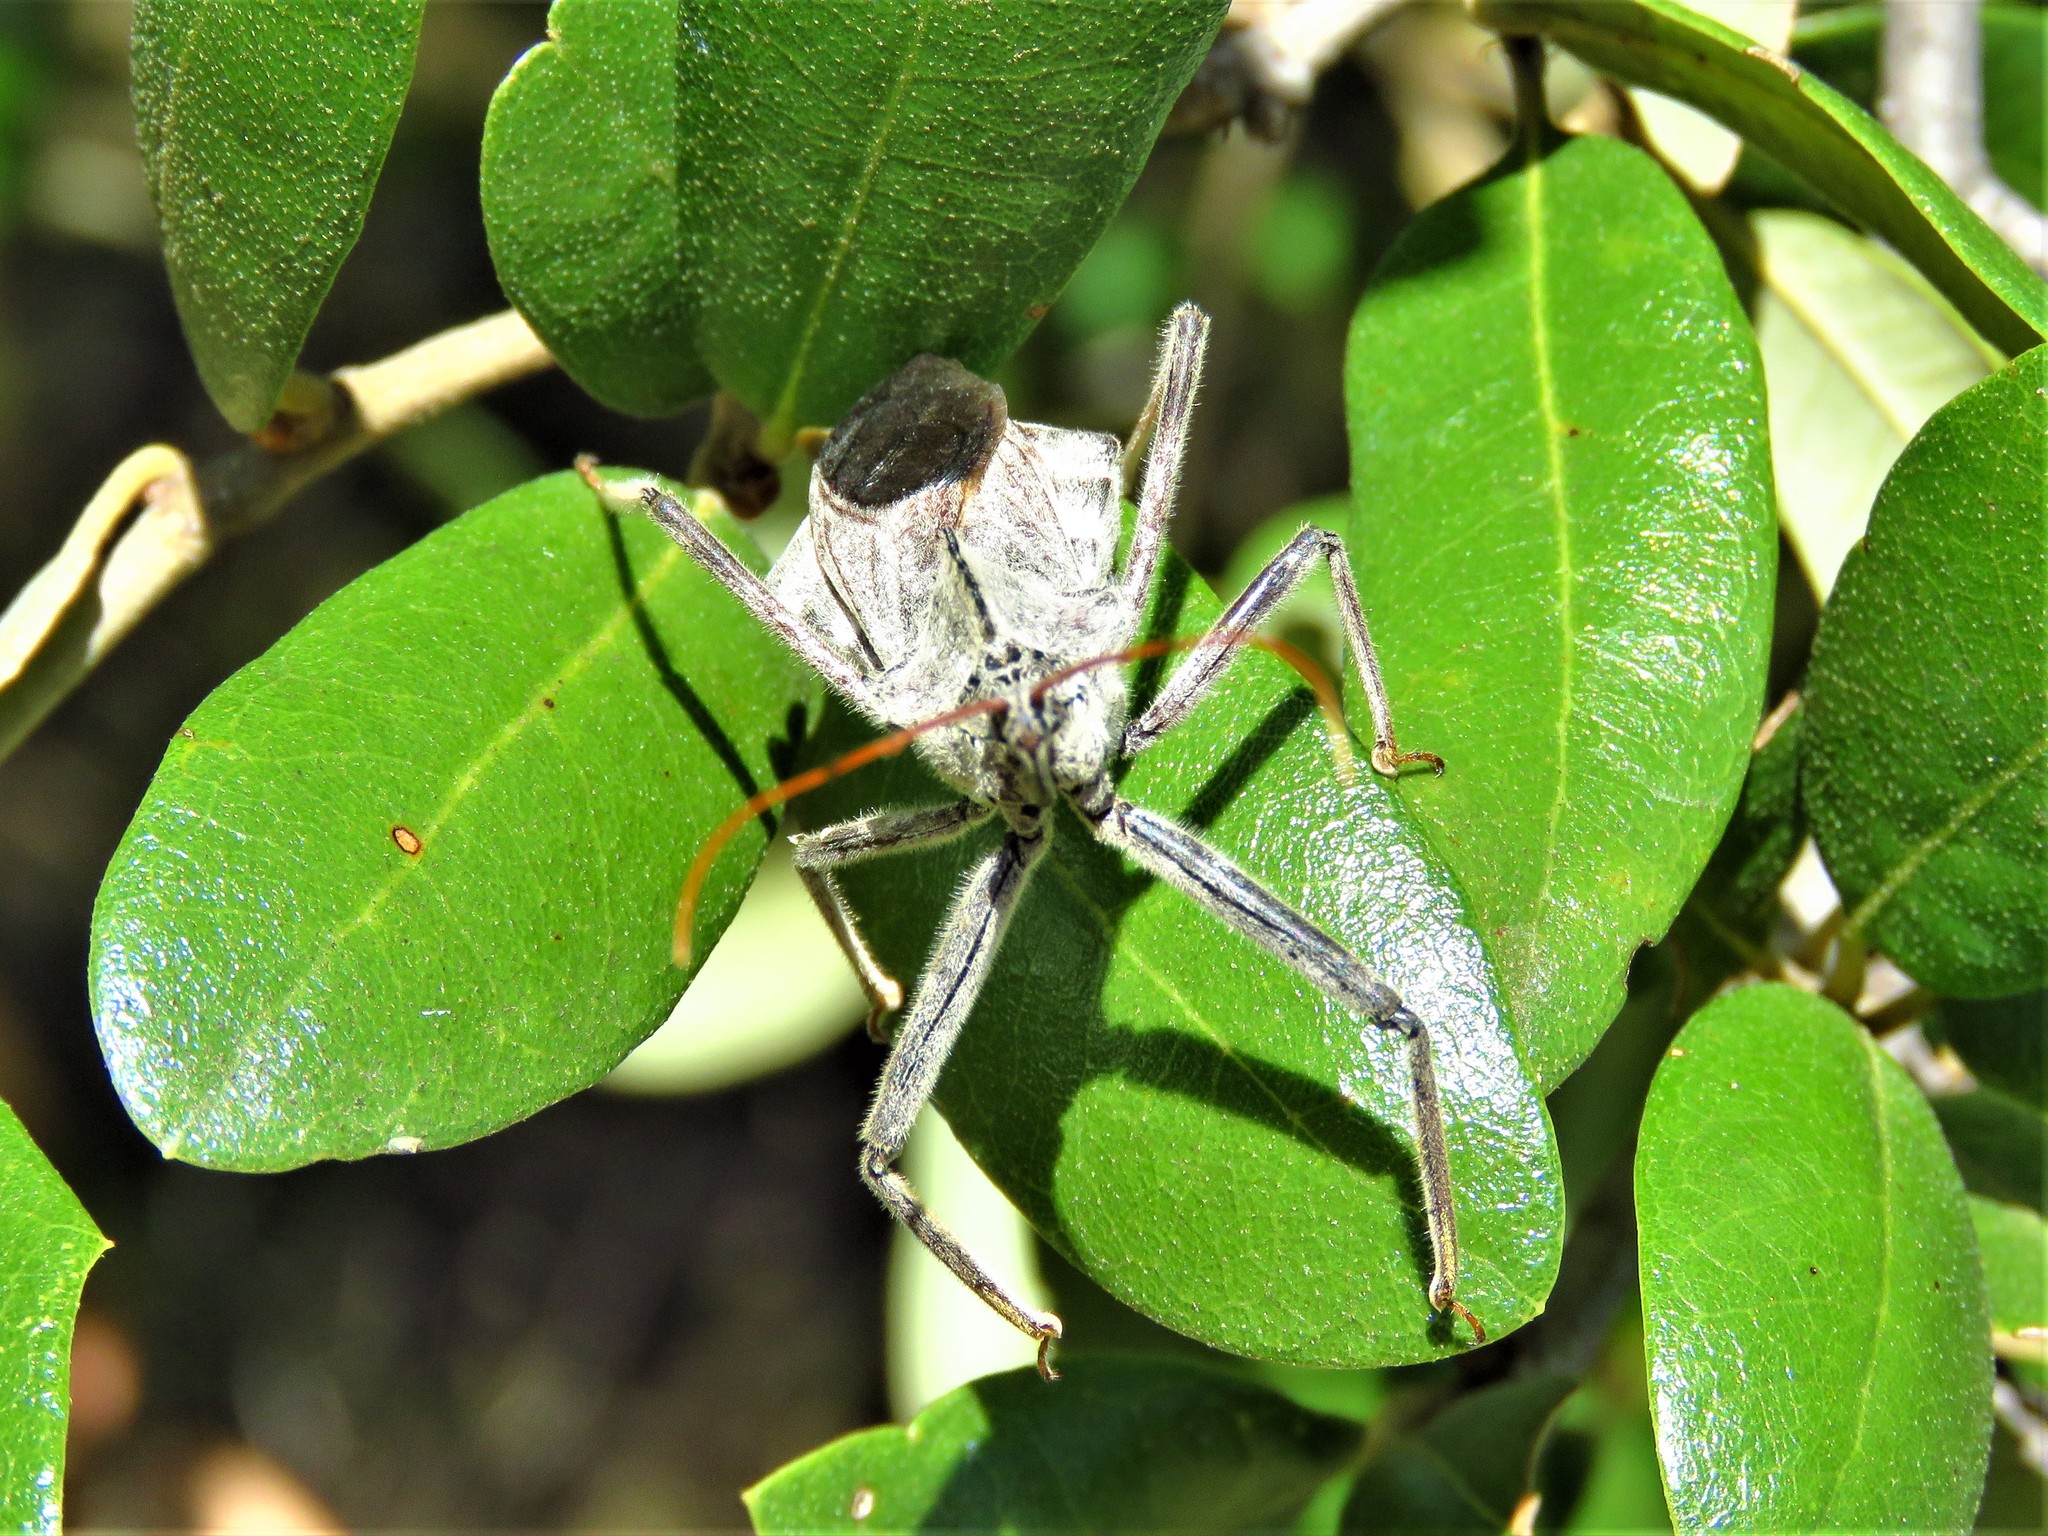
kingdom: Animalia
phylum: Arthropoda
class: Insecta
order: Hemiptera
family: Reduviidae
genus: Arilus
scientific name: Arilus cristatus
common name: North american wheel bug
